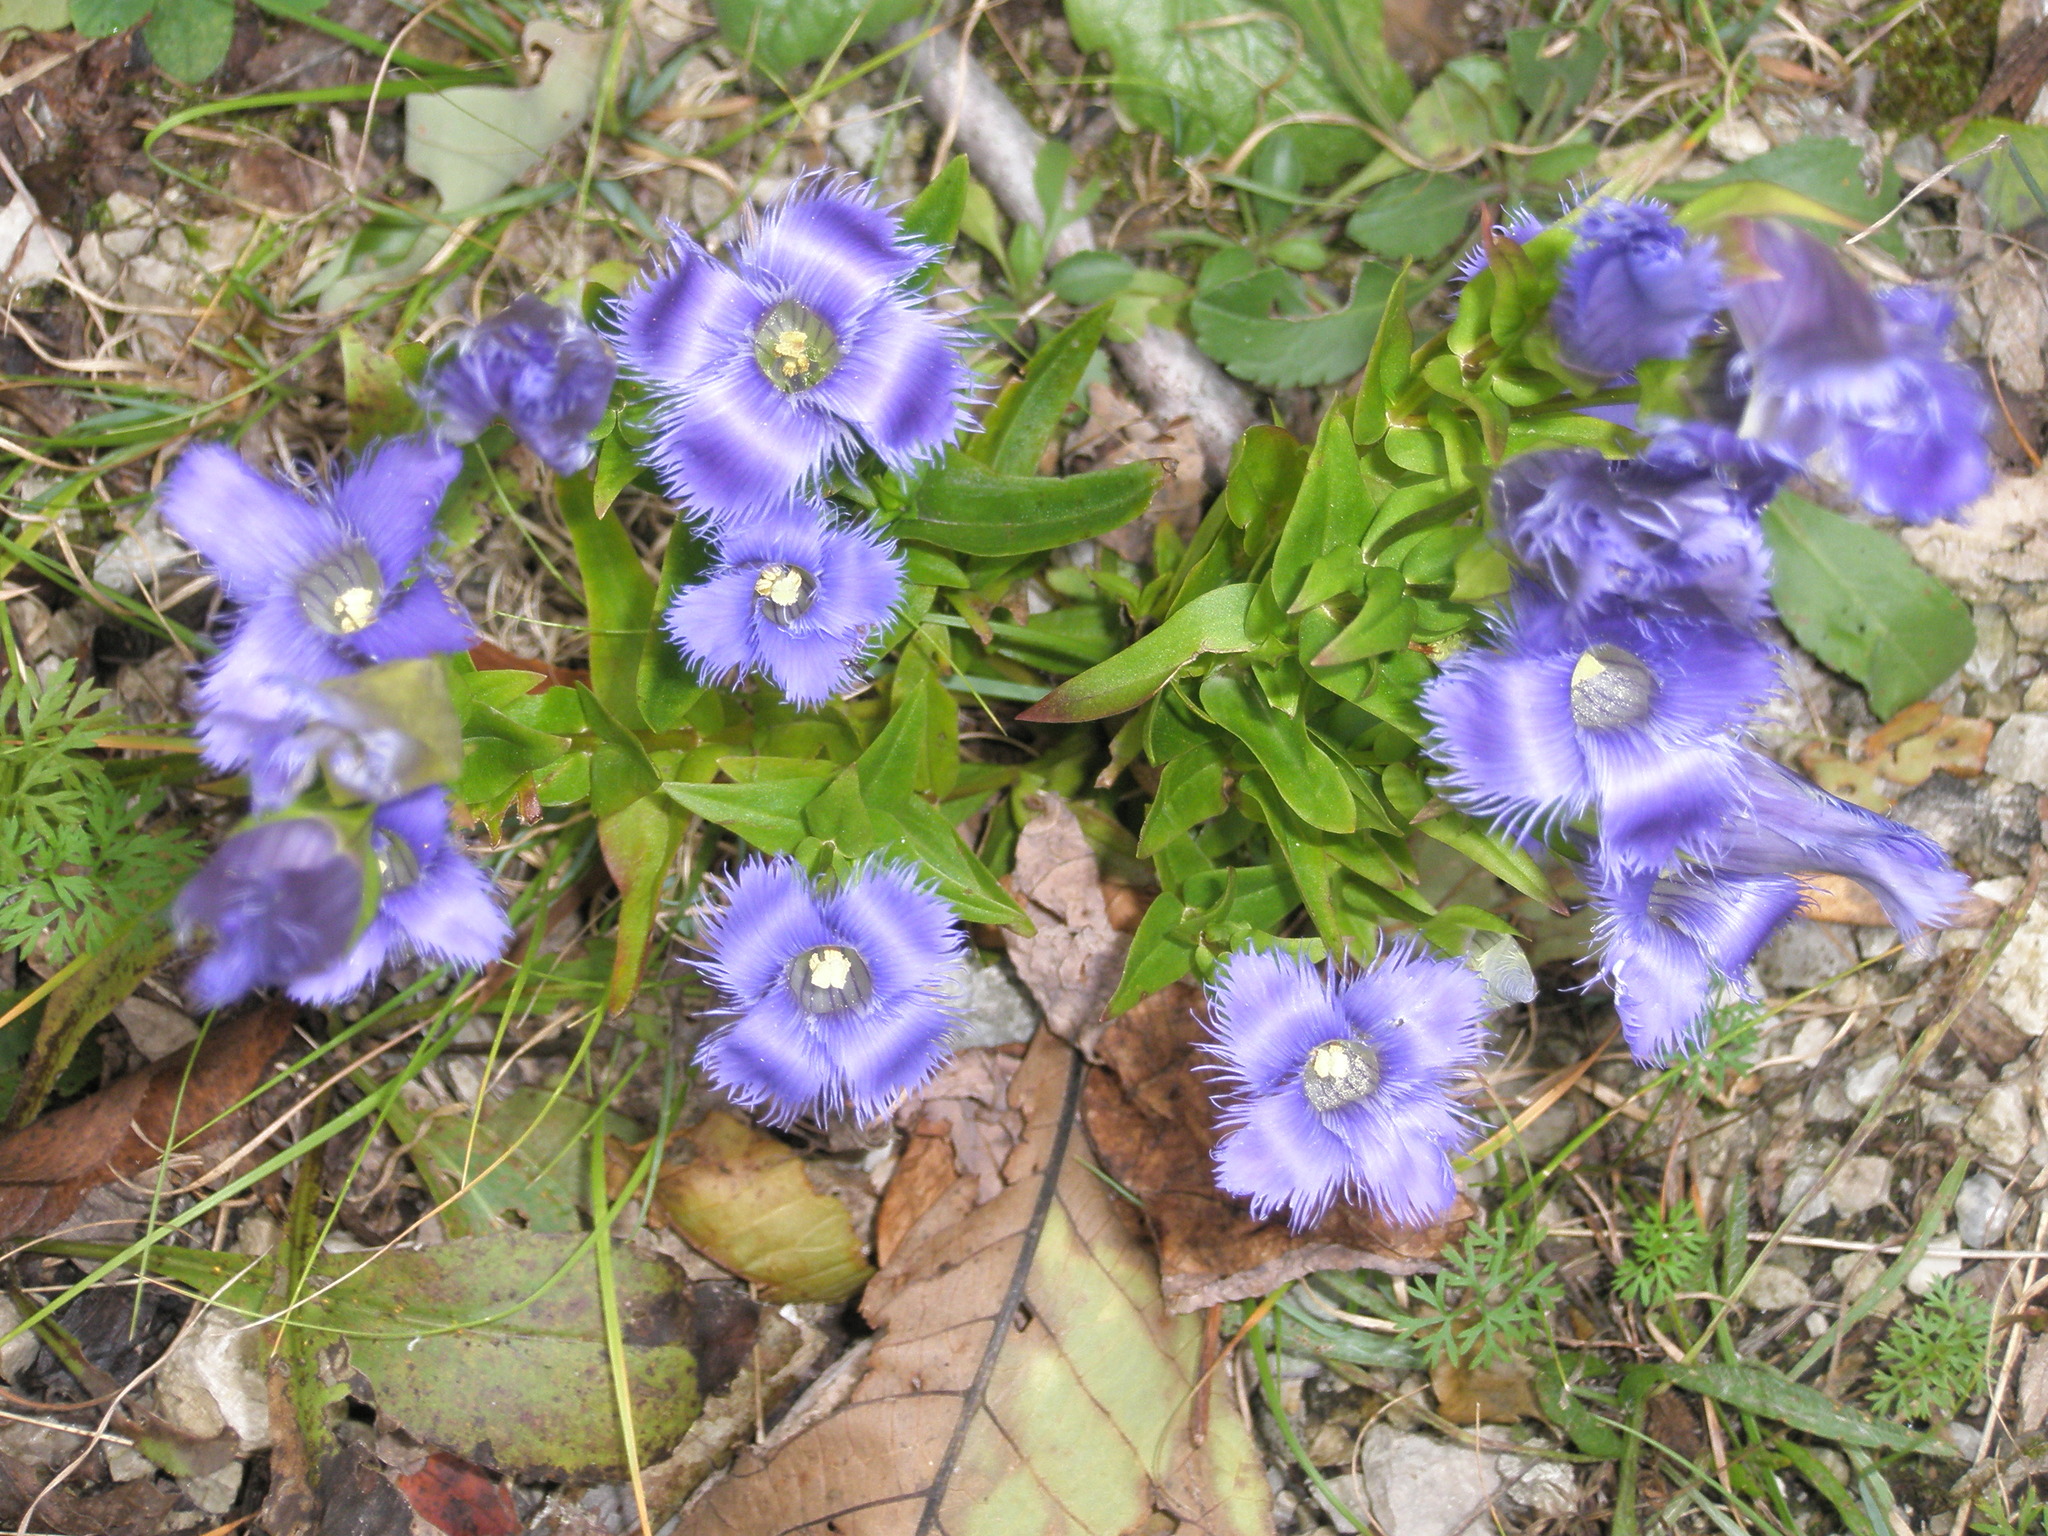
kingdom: Plantae
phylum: Tracheophyta
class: Magnoliopsida
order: Gentianales
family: Gentianaceae
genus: Gentianopsis
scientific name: Gentianopsis crinita
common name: Fringed-gentian
